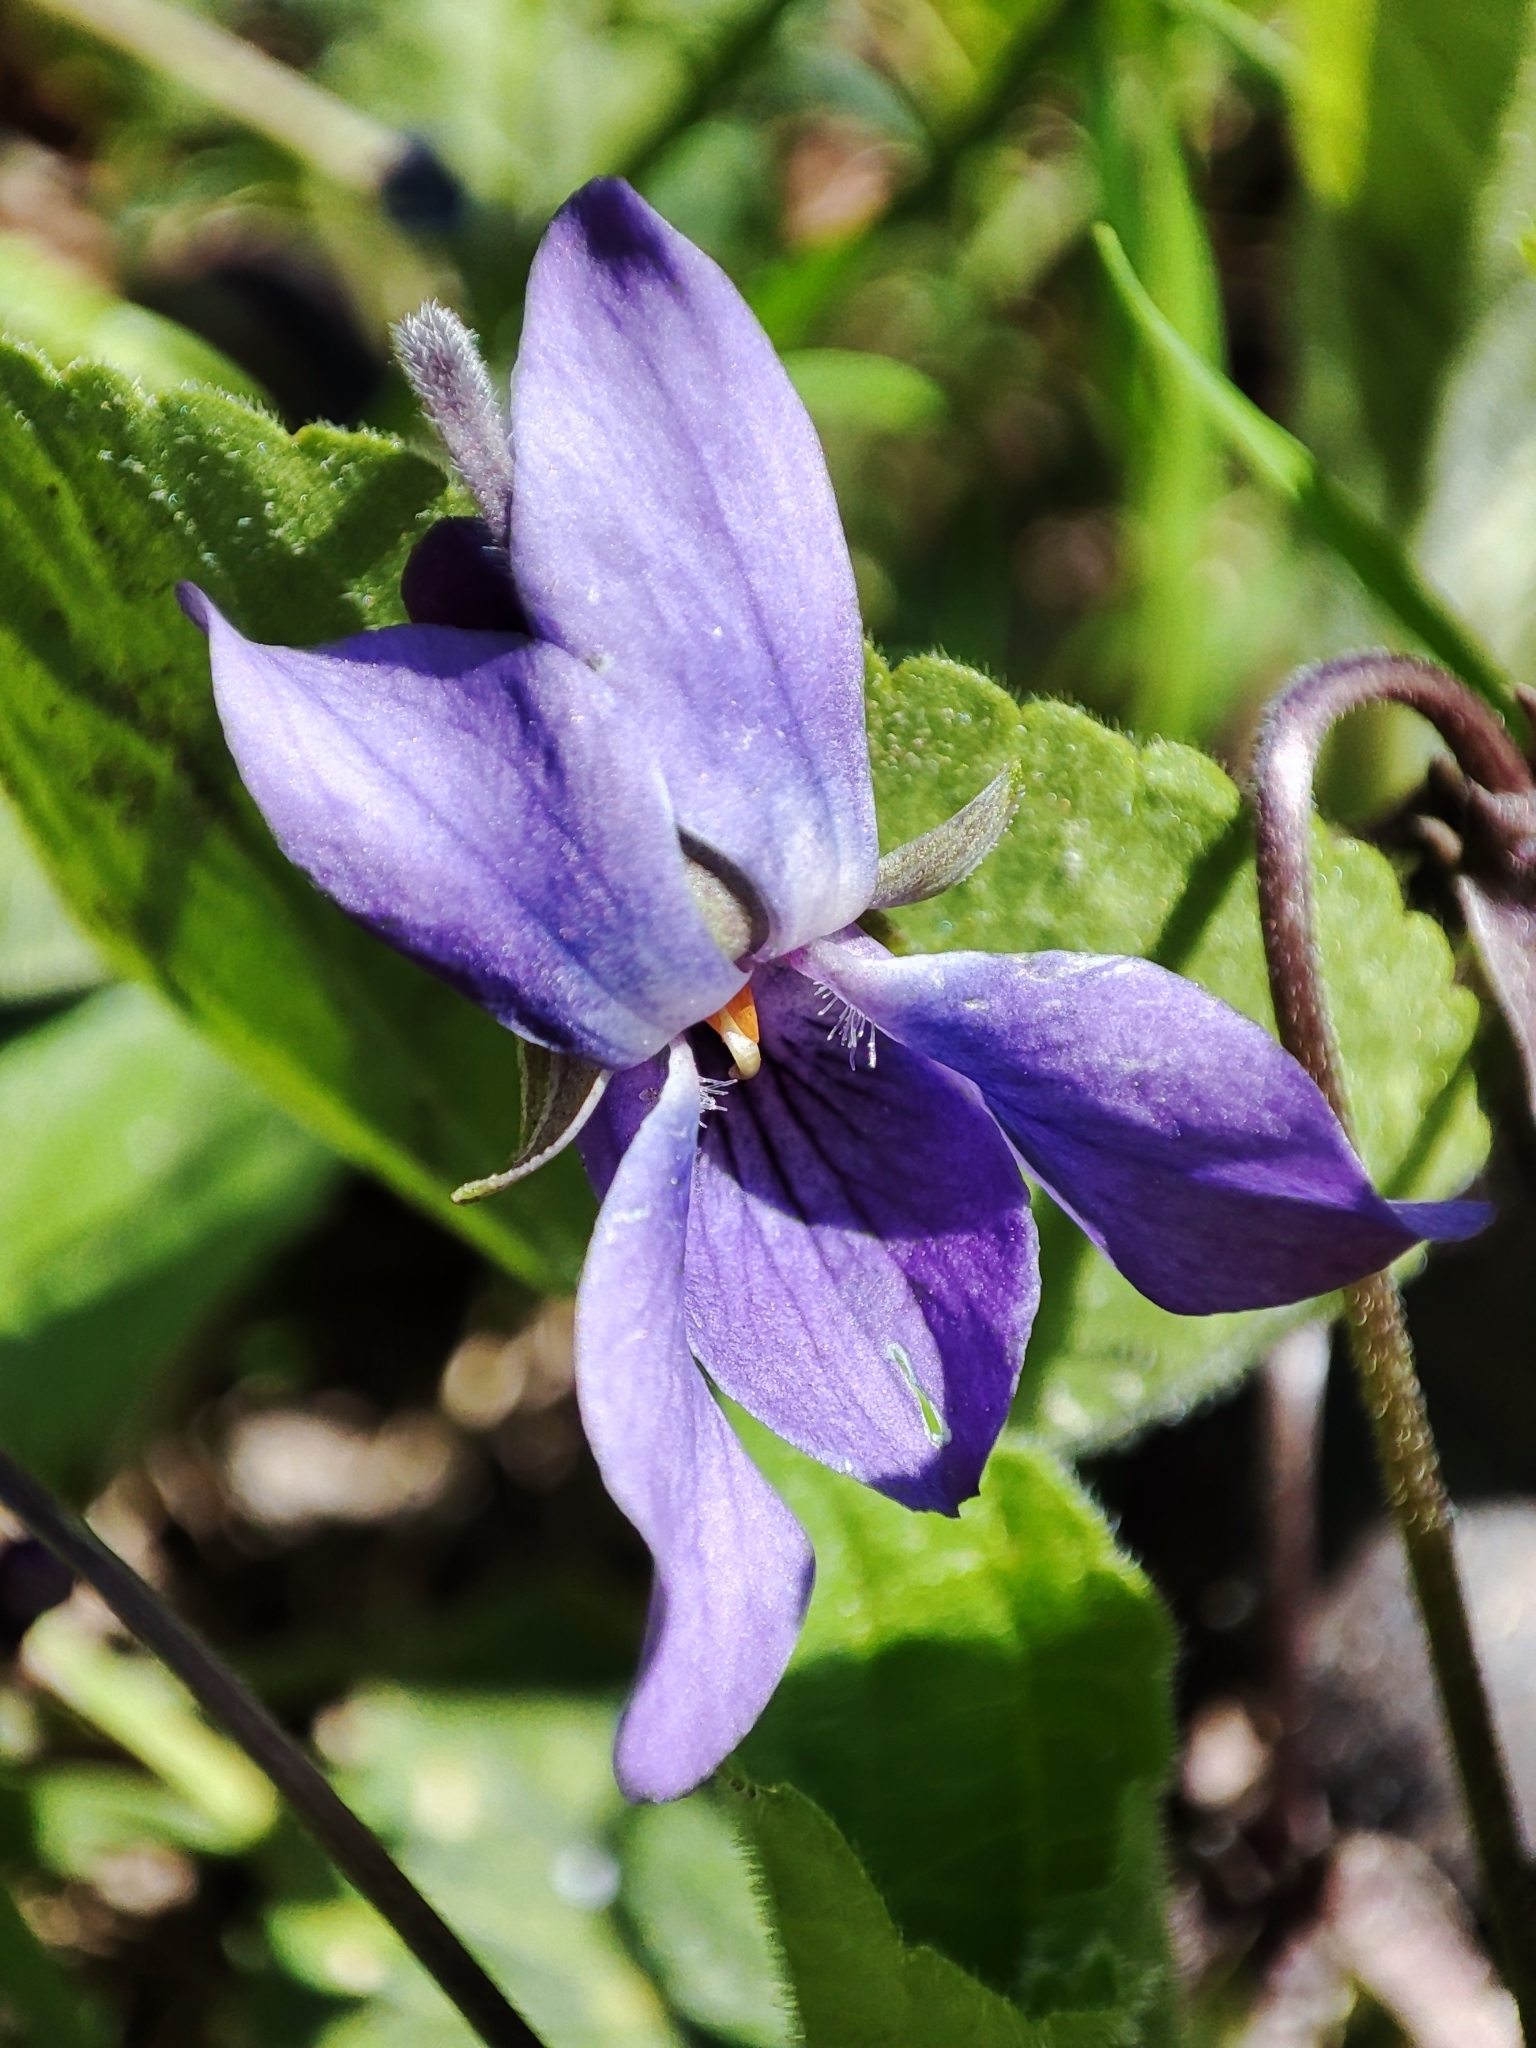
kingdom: Plantae
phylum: Tracheophyta
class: Magnoliopsida
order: Malpighiales
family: Violaceae
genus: Viola
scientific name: Viola odorata
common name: Sweet violet
